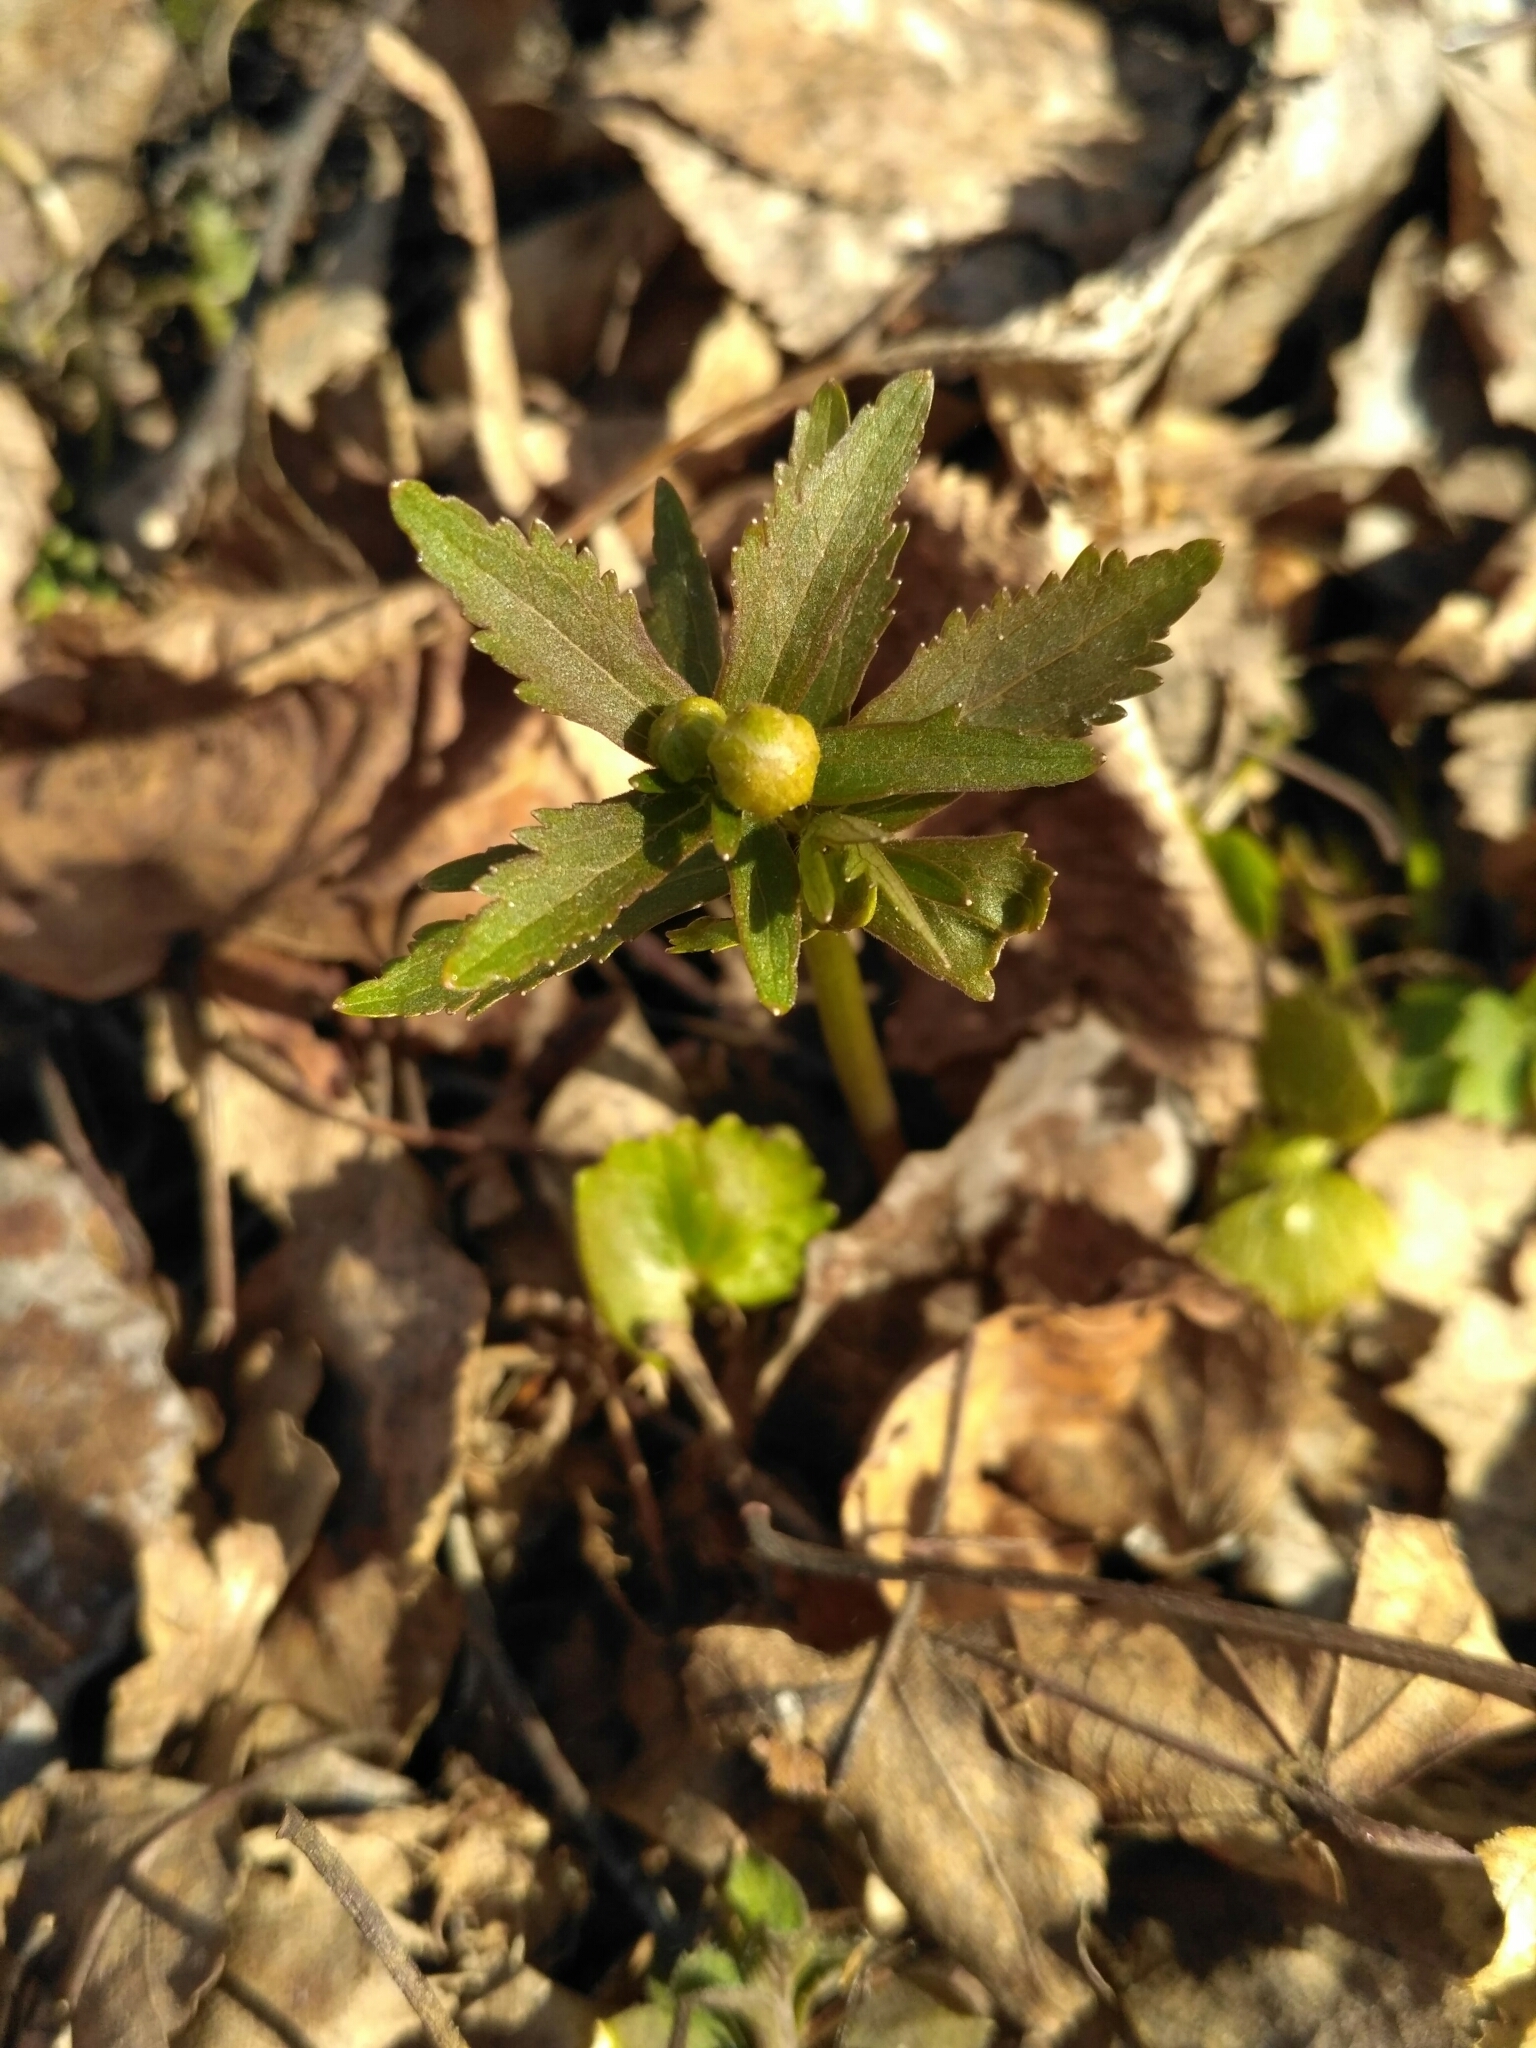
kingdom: Plantae
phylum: Tracheophyta
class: Magnoliopsida
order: Ranunculales
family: Ranunculaceae
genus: Ranunculus
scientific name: Ranunculus cassubicus
